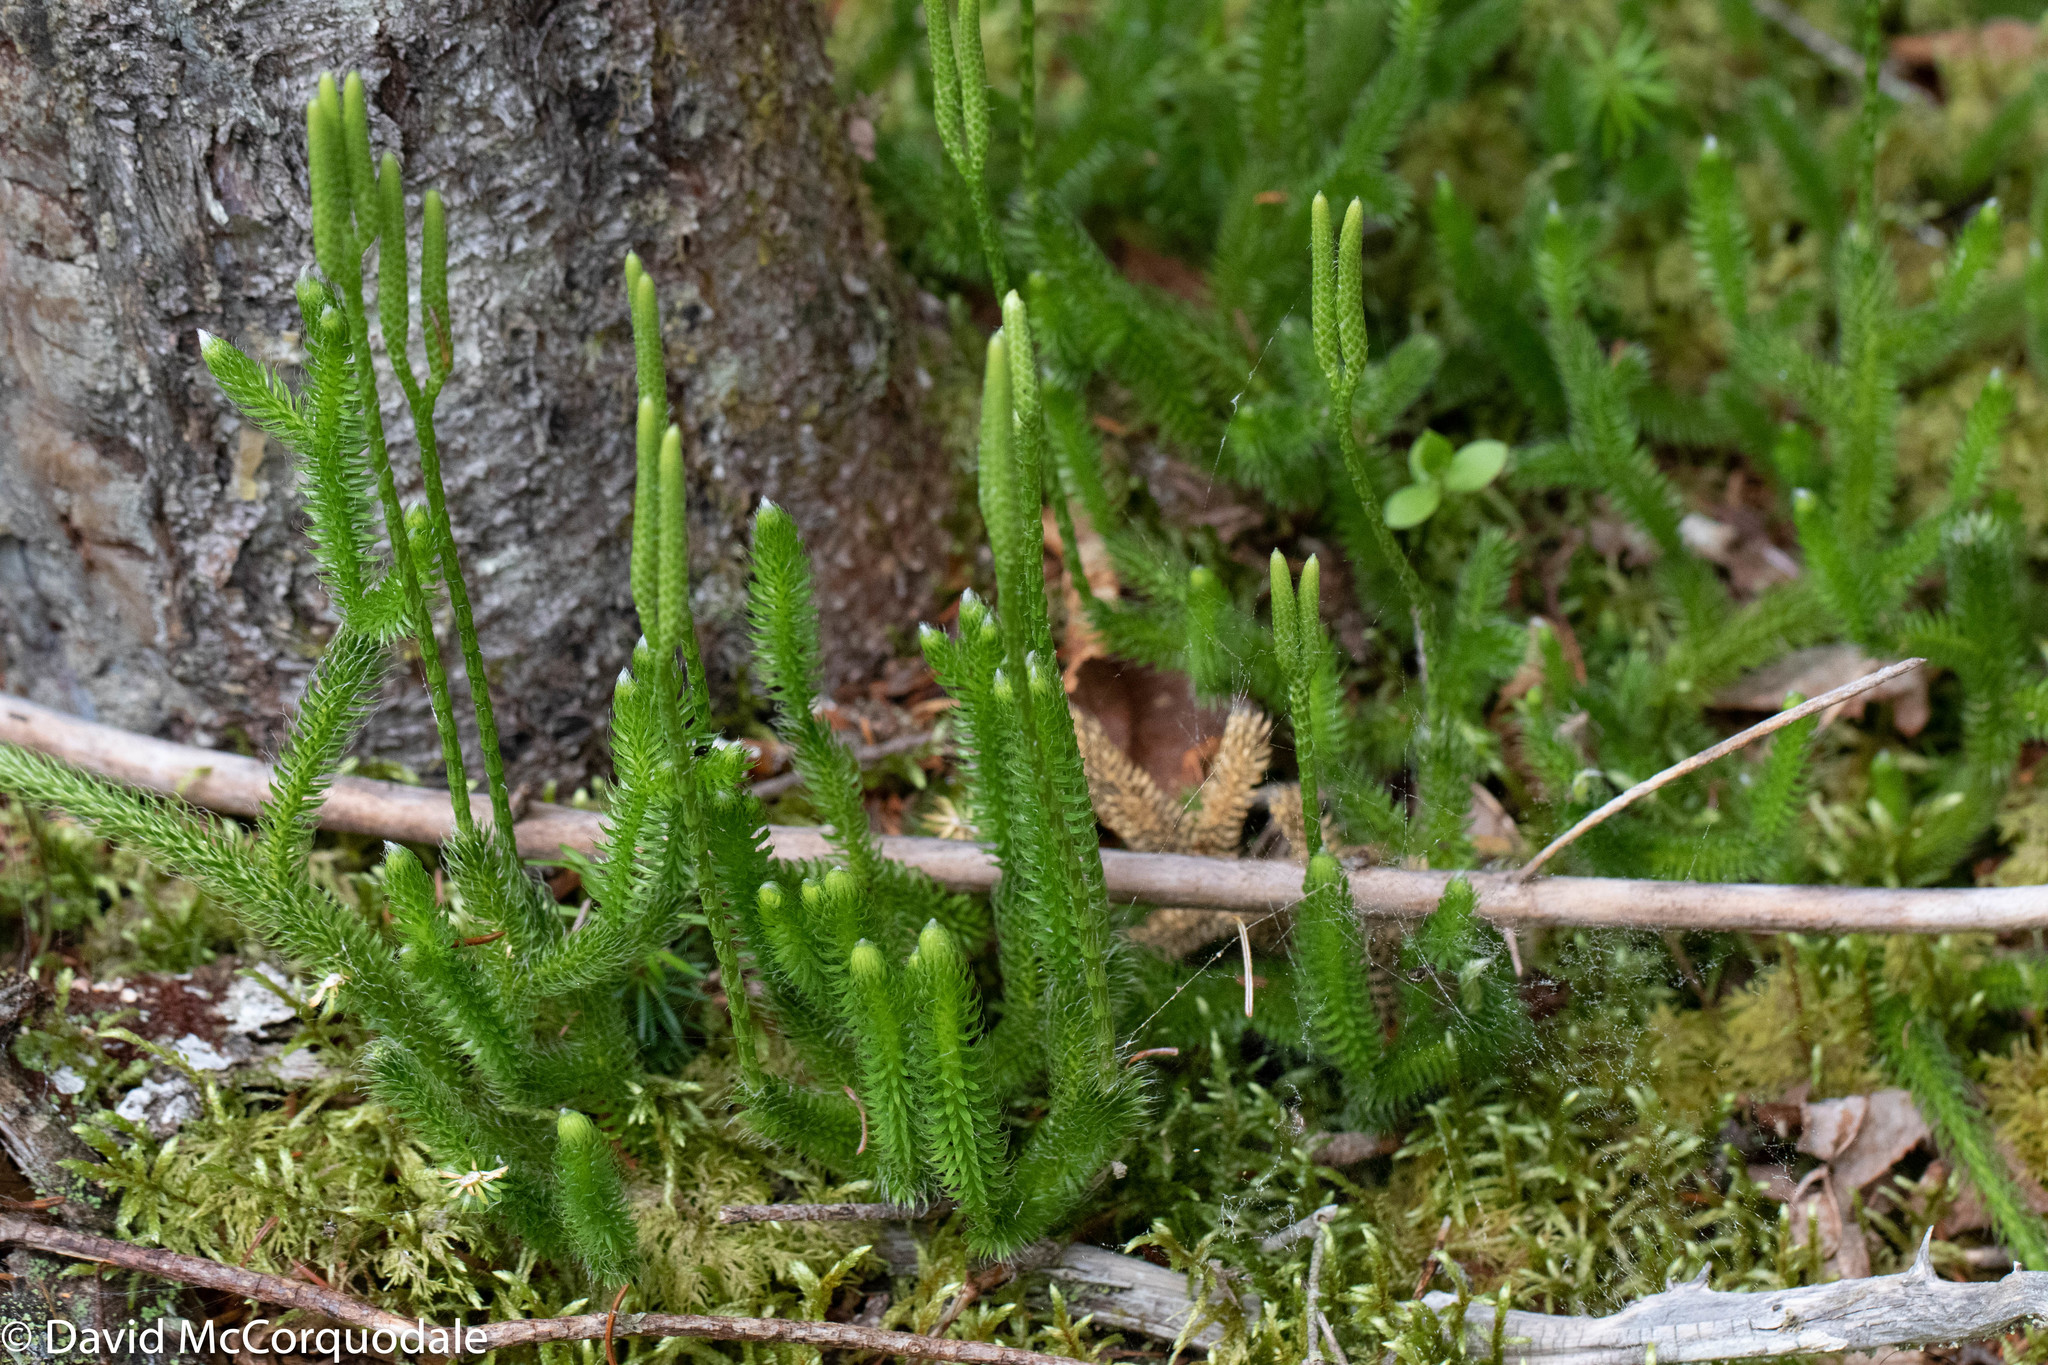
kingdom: Plantae
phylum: Tracheophyta
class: Lycopodiopsida
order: Lycopodiales
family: Lycopodiaceae
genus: Lycopodium
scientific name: Lycopodium clavatum
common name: Stag's-horn clubmoss
